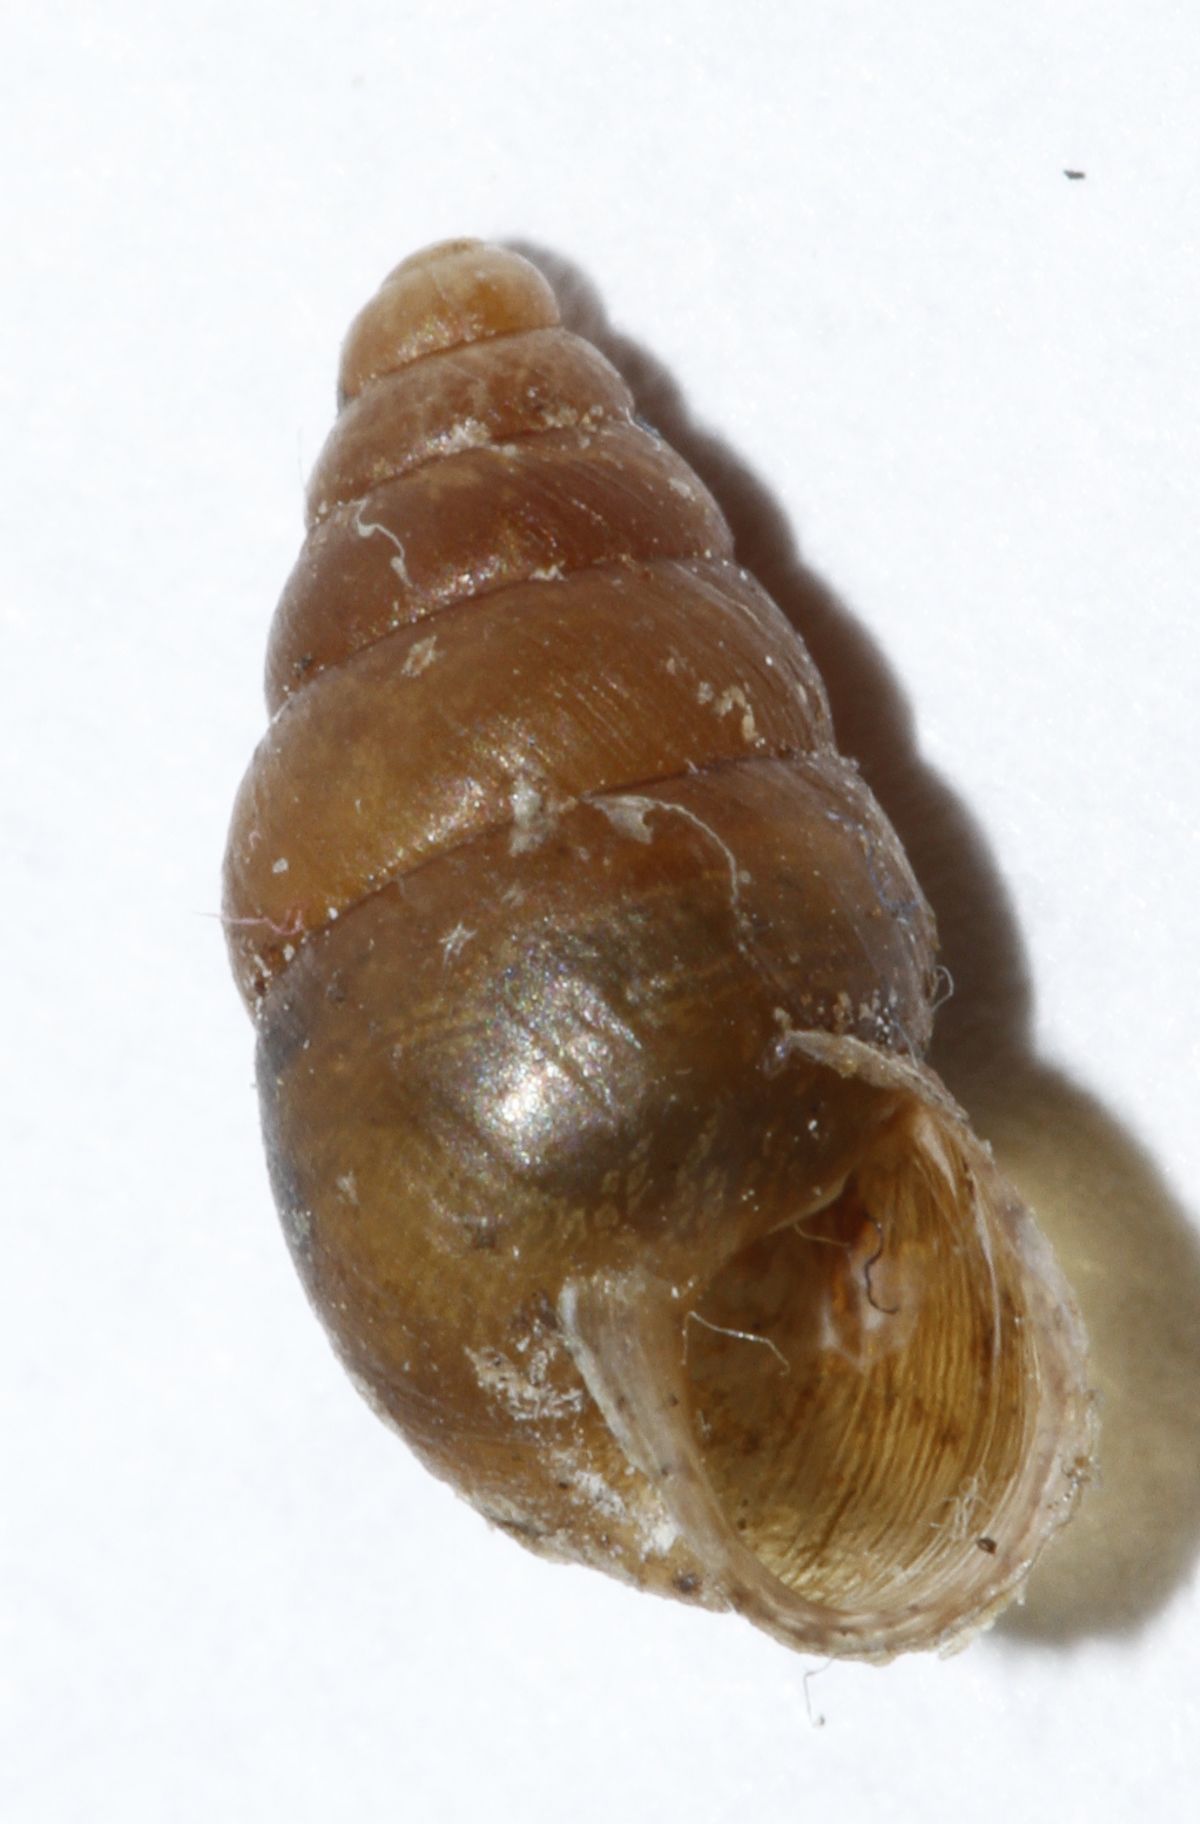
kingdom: Animalia
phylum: Mollusca
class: Gastropoda
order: Stylommatophora
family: Enidae
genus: Merdigera
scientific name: Merdigera obscura
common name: Lesser bulin
